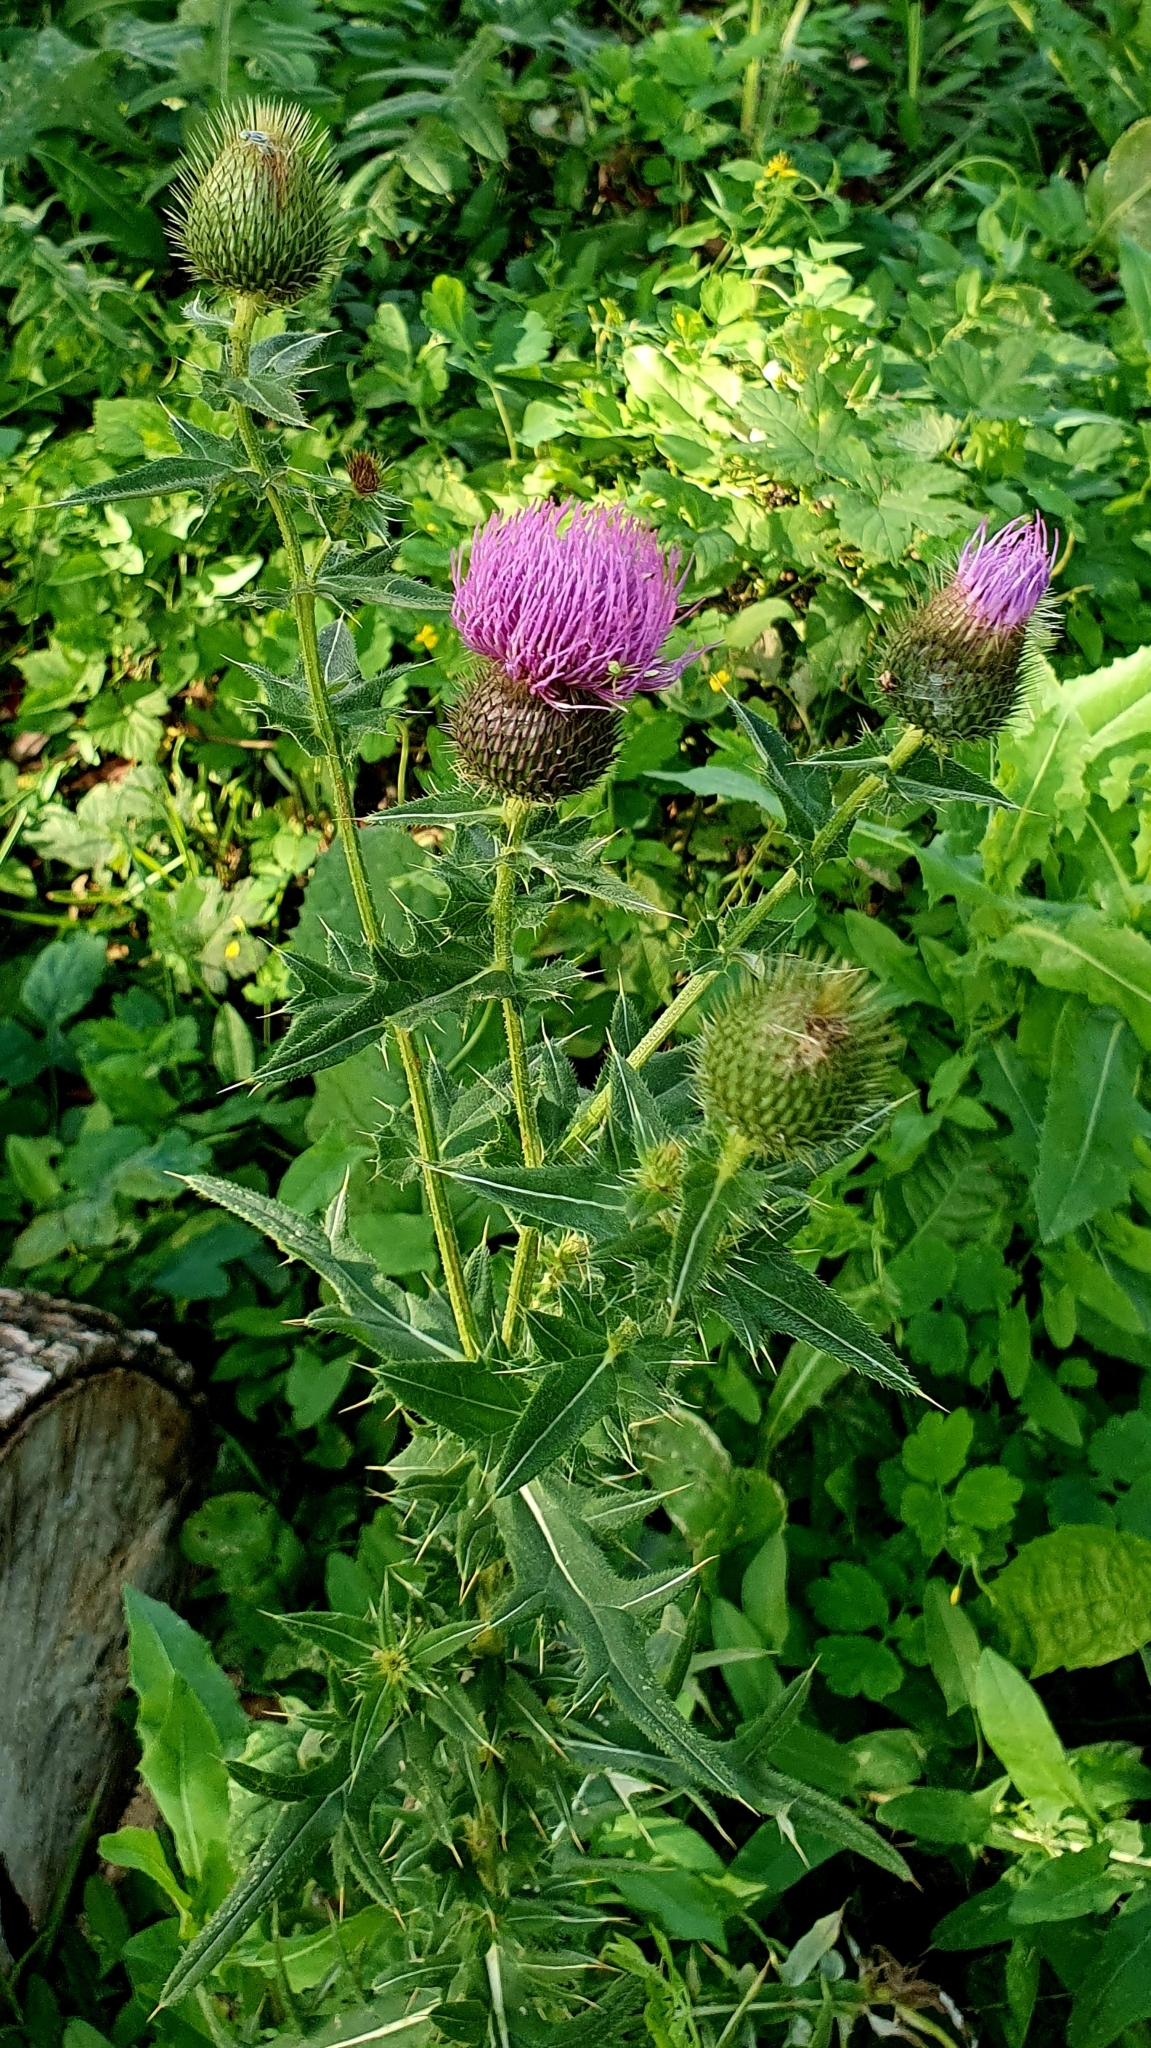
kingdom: Plantae
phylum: Tracheophyta
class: Magnoliopsida
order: Asterales
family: Asteraceae
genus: Cirsium
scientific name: Cirsium serrulatum
